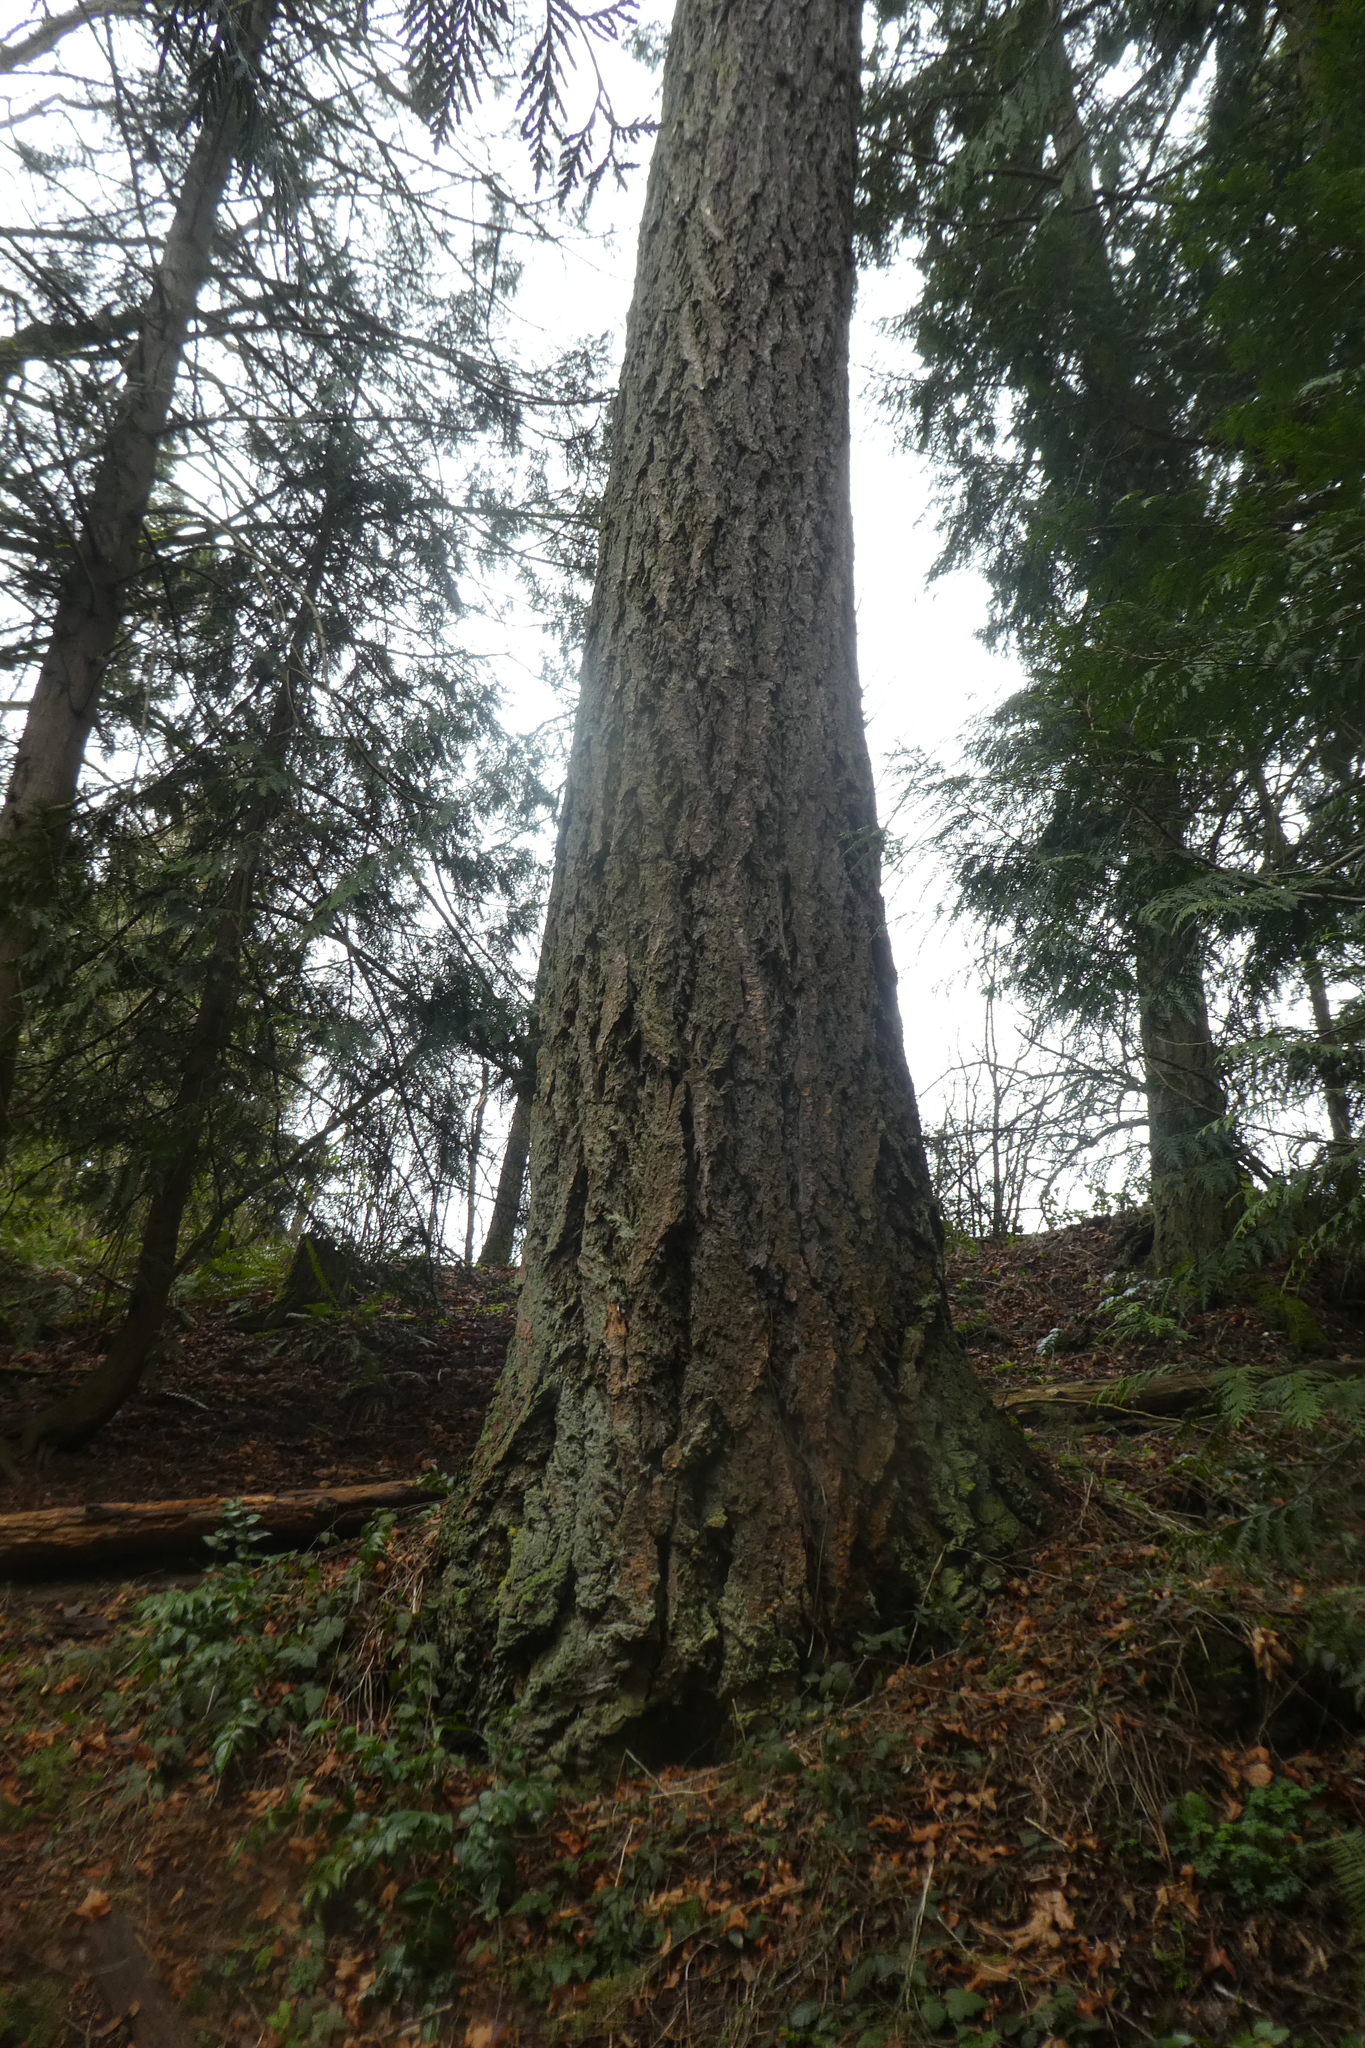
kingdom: Plantae
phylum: Tracheophyta
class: Pinopsida
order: Pinales
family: Pinaceae
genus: Pseudotsuga
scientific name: Pseudotsuga menziesii
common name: Douglas fir
